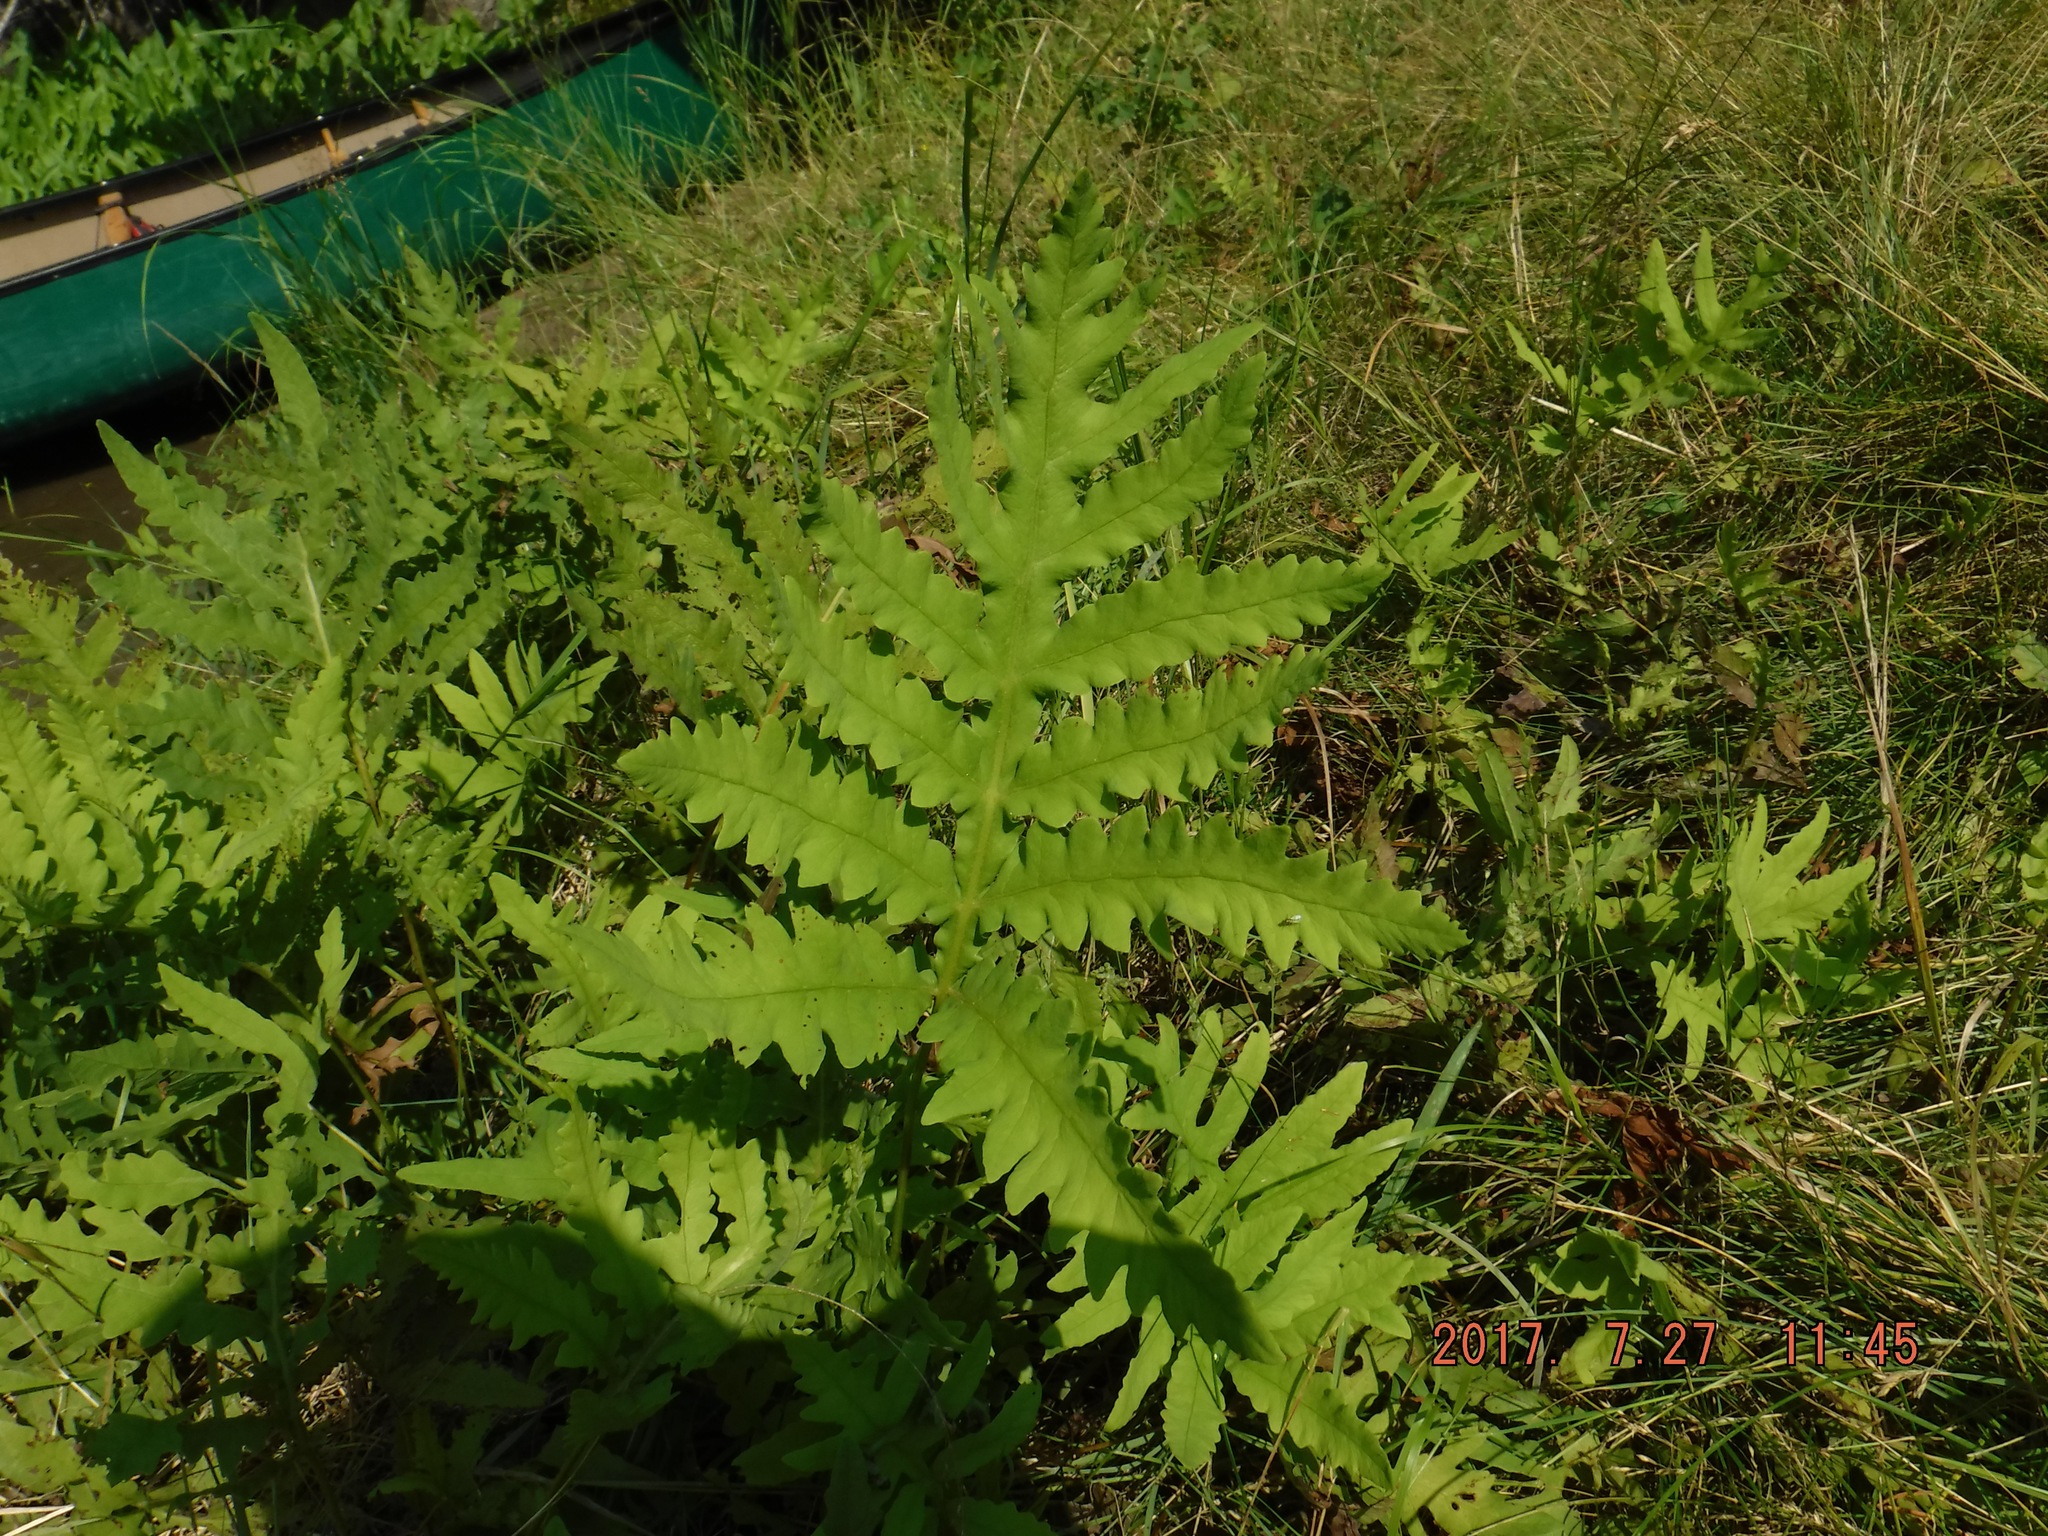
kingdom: Plantae
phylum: Tracheophyta
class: Polypodiopsida
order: Polypodiales
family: Onocleaceae
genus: Onoclea
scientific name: Onoclea sensibilis
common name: Sensitive fern
